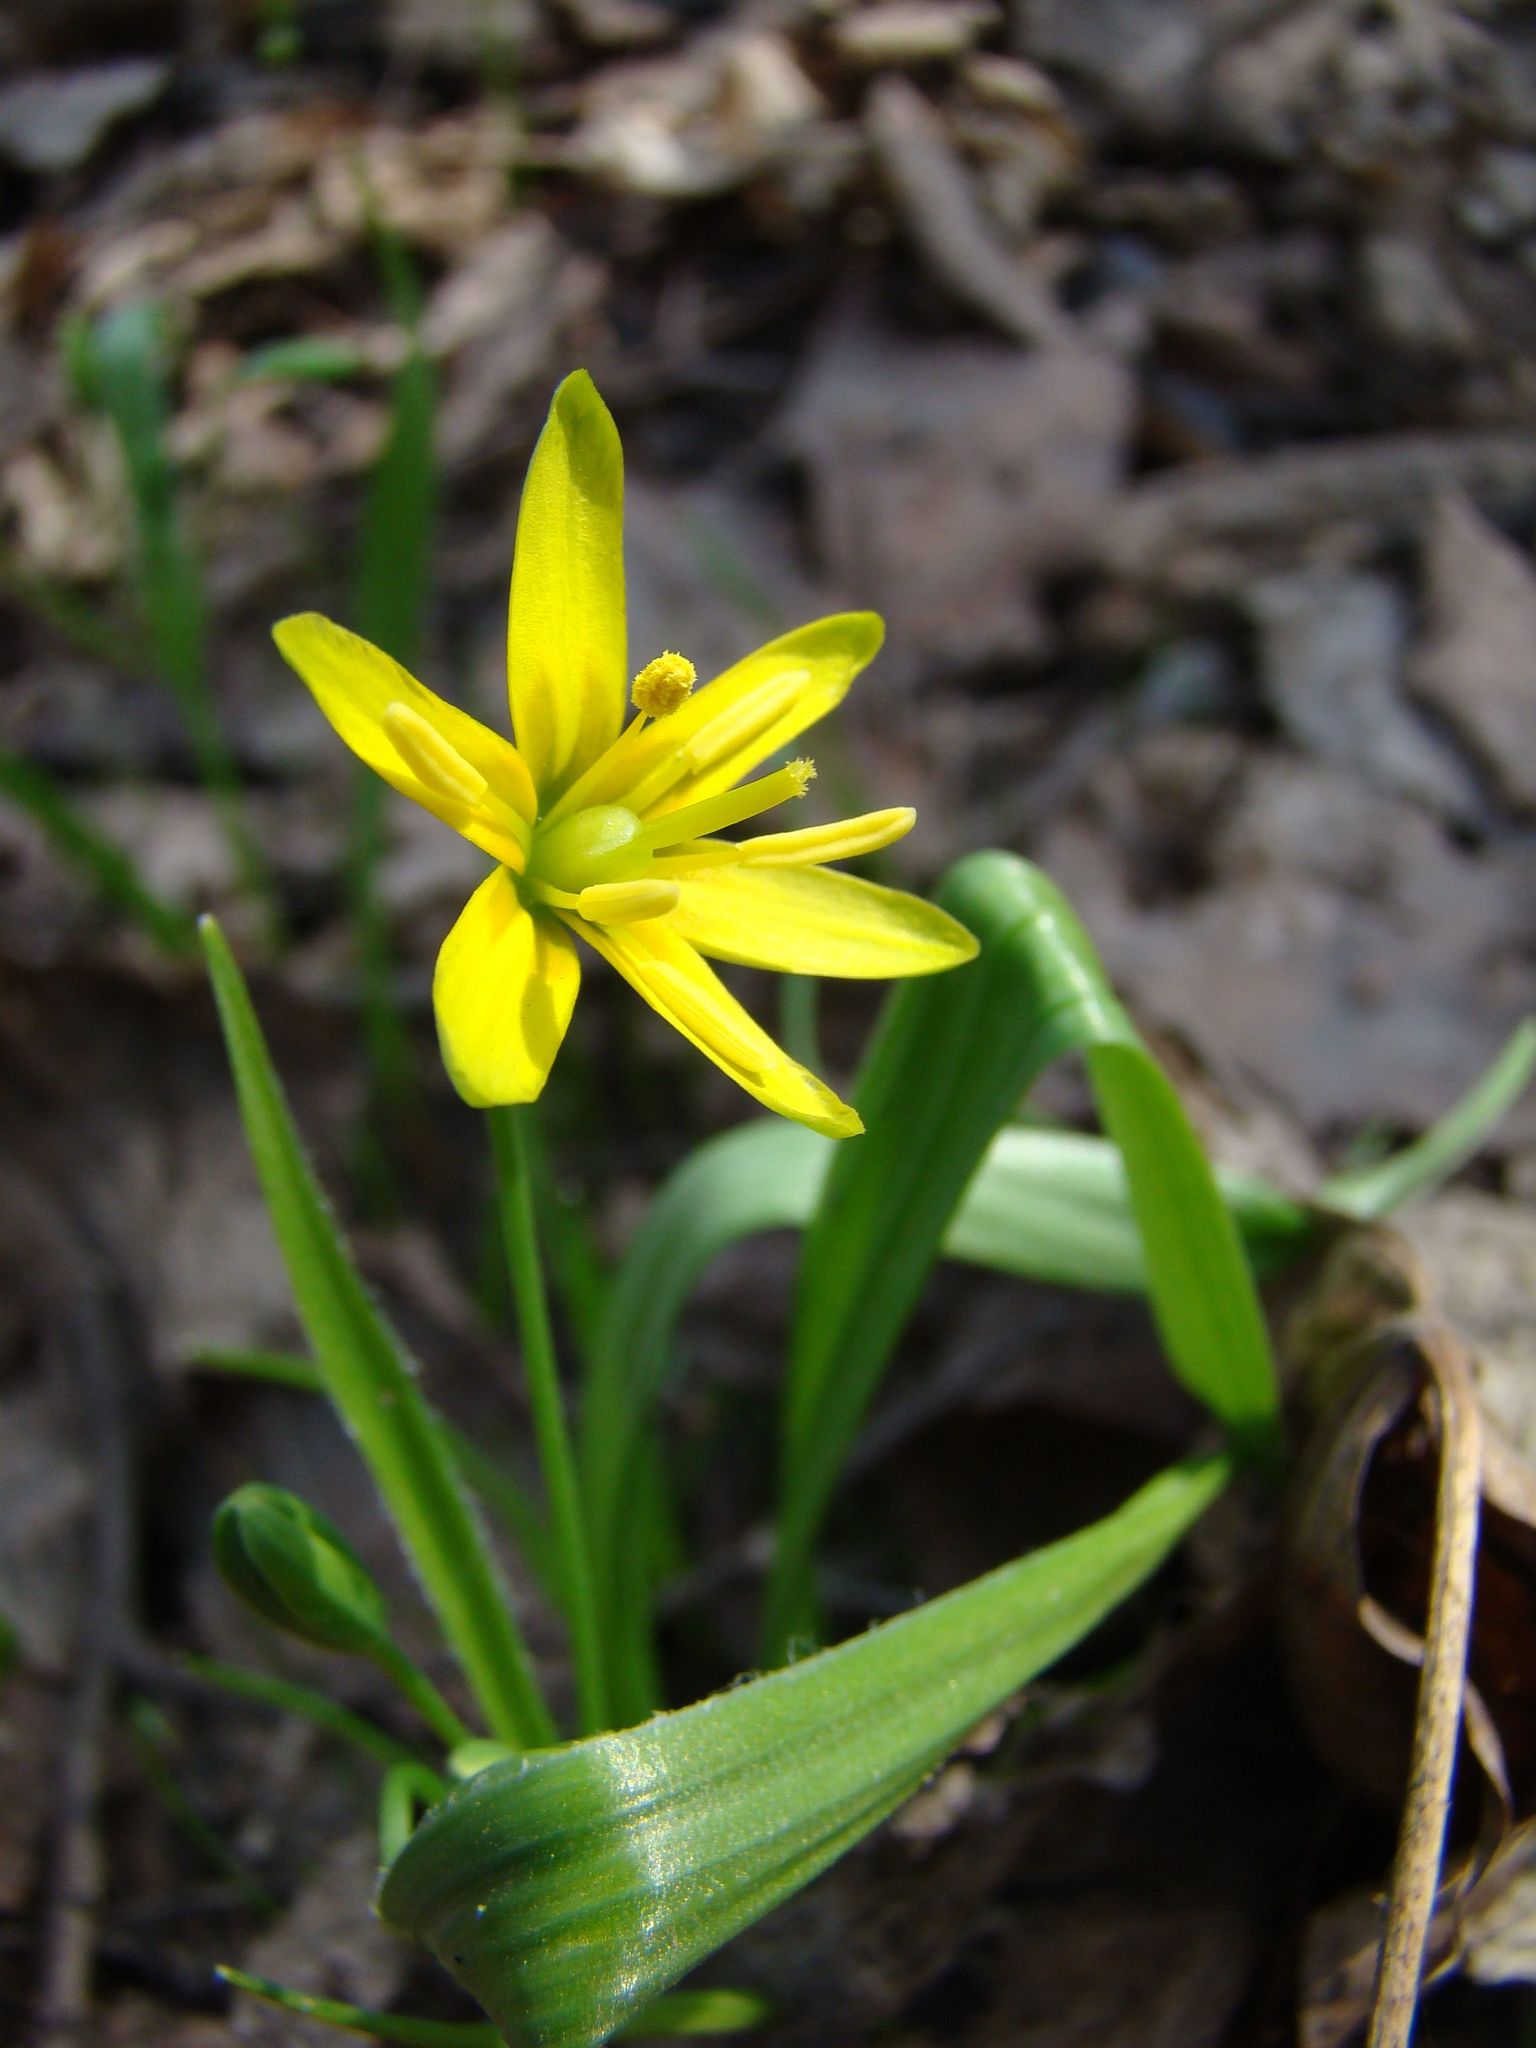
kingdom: Plantae
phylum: Tracheophyta
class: Liliopsida
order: Liliales
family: Liliaceae
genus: Gagea
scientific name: Gagea lutea
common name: Yellow star-of-bethlehem
